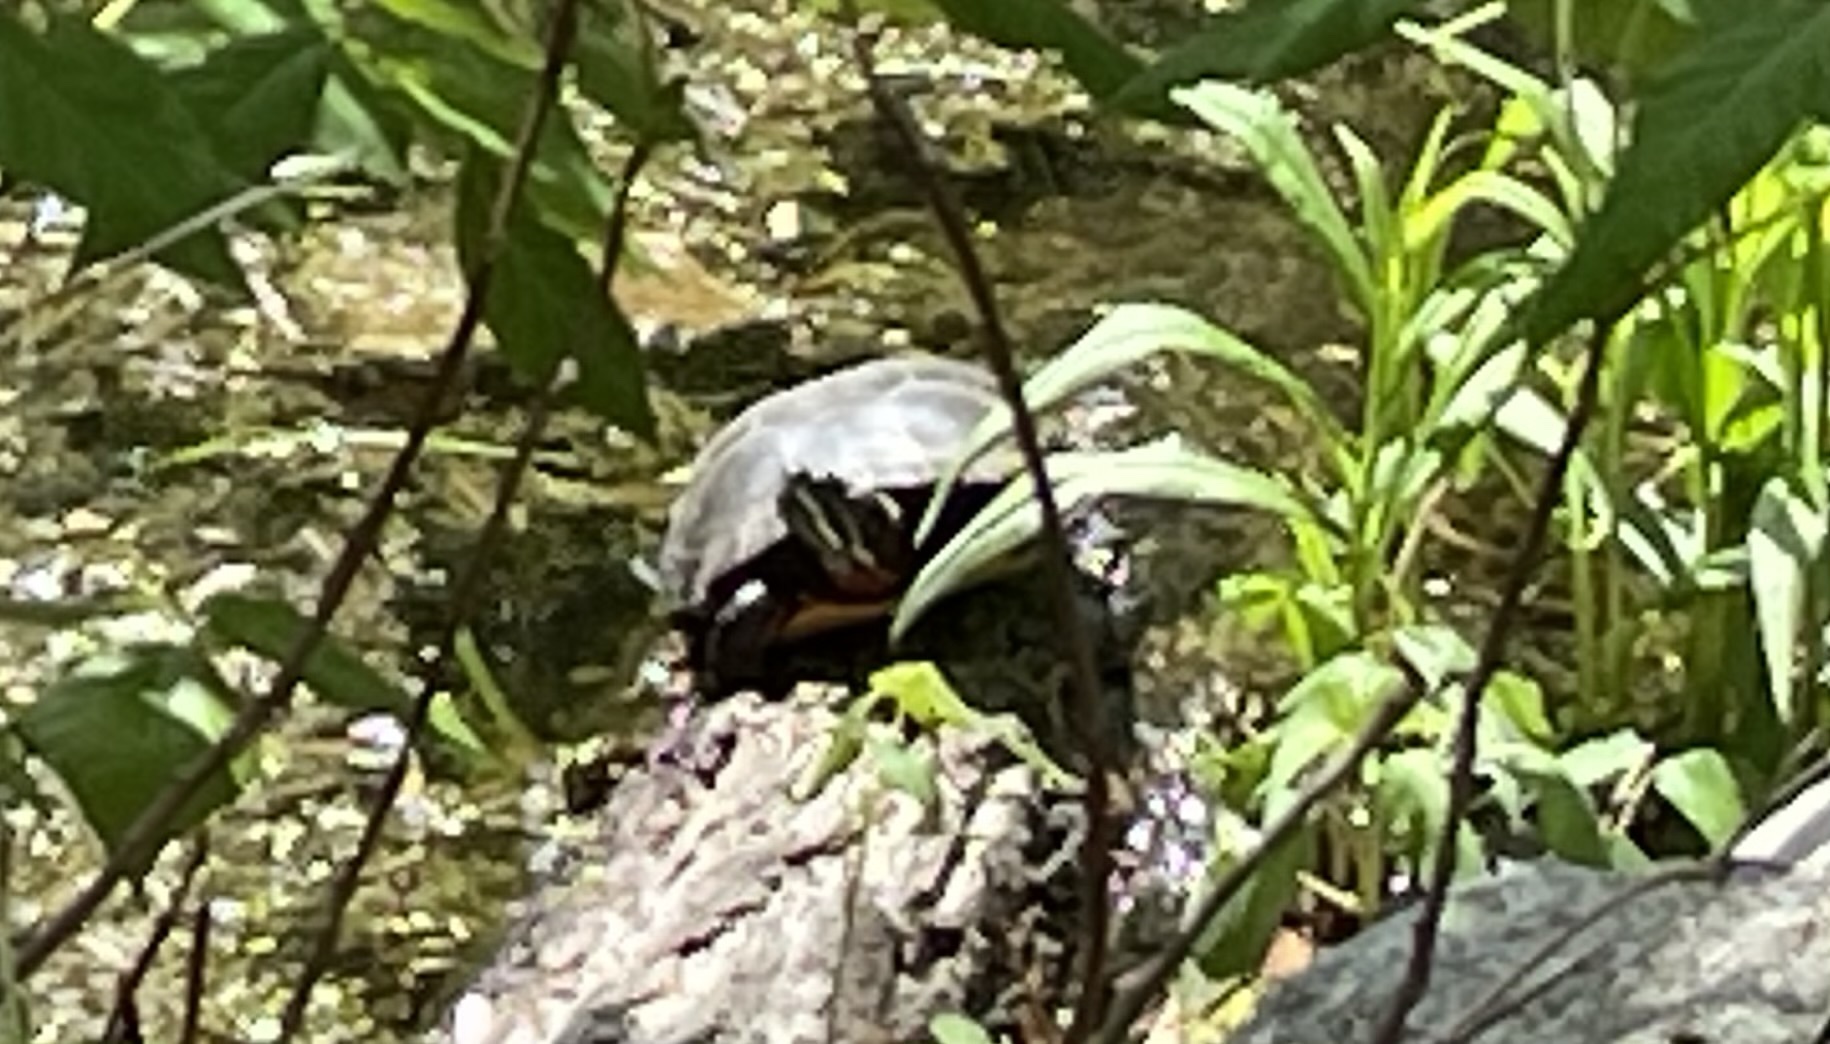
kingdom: Animalia
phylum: Chordata
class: Testudines
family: Emydidae
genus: Chrysemys
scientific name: Chrysemys picta
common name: Painted turtle
